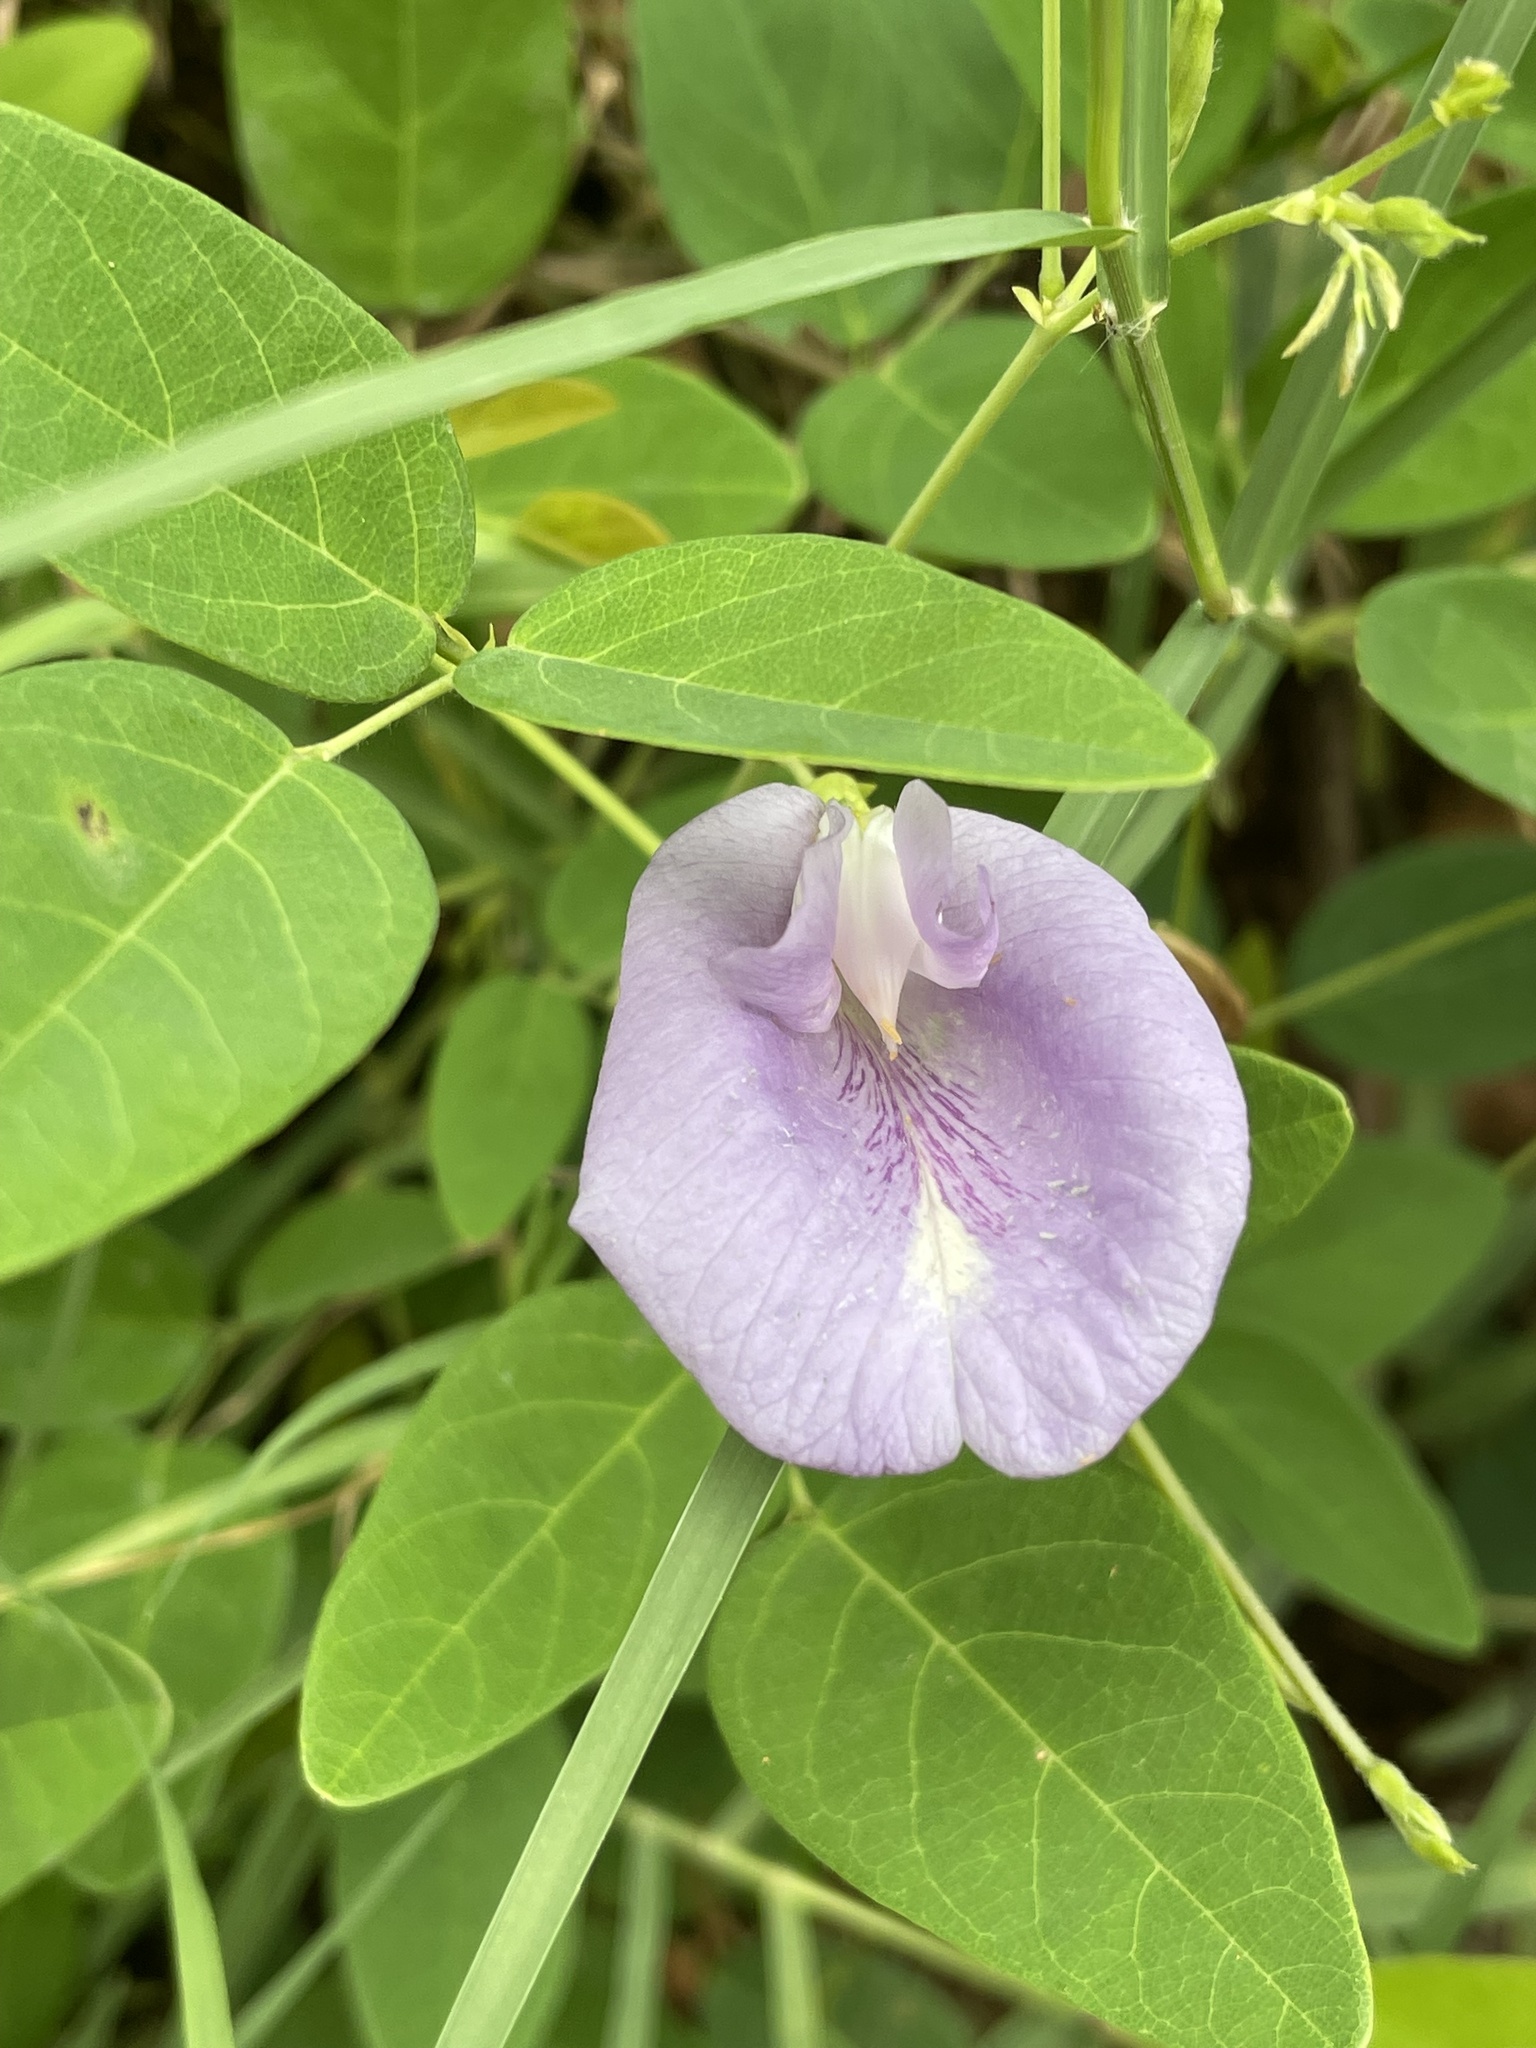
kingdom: Plantae
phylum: Tracheophyta
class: Magnoliopsida
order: Fabales
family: Fabaceae
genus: Clitoria
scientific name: Clitoria mariana
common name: Butterfly-pea
